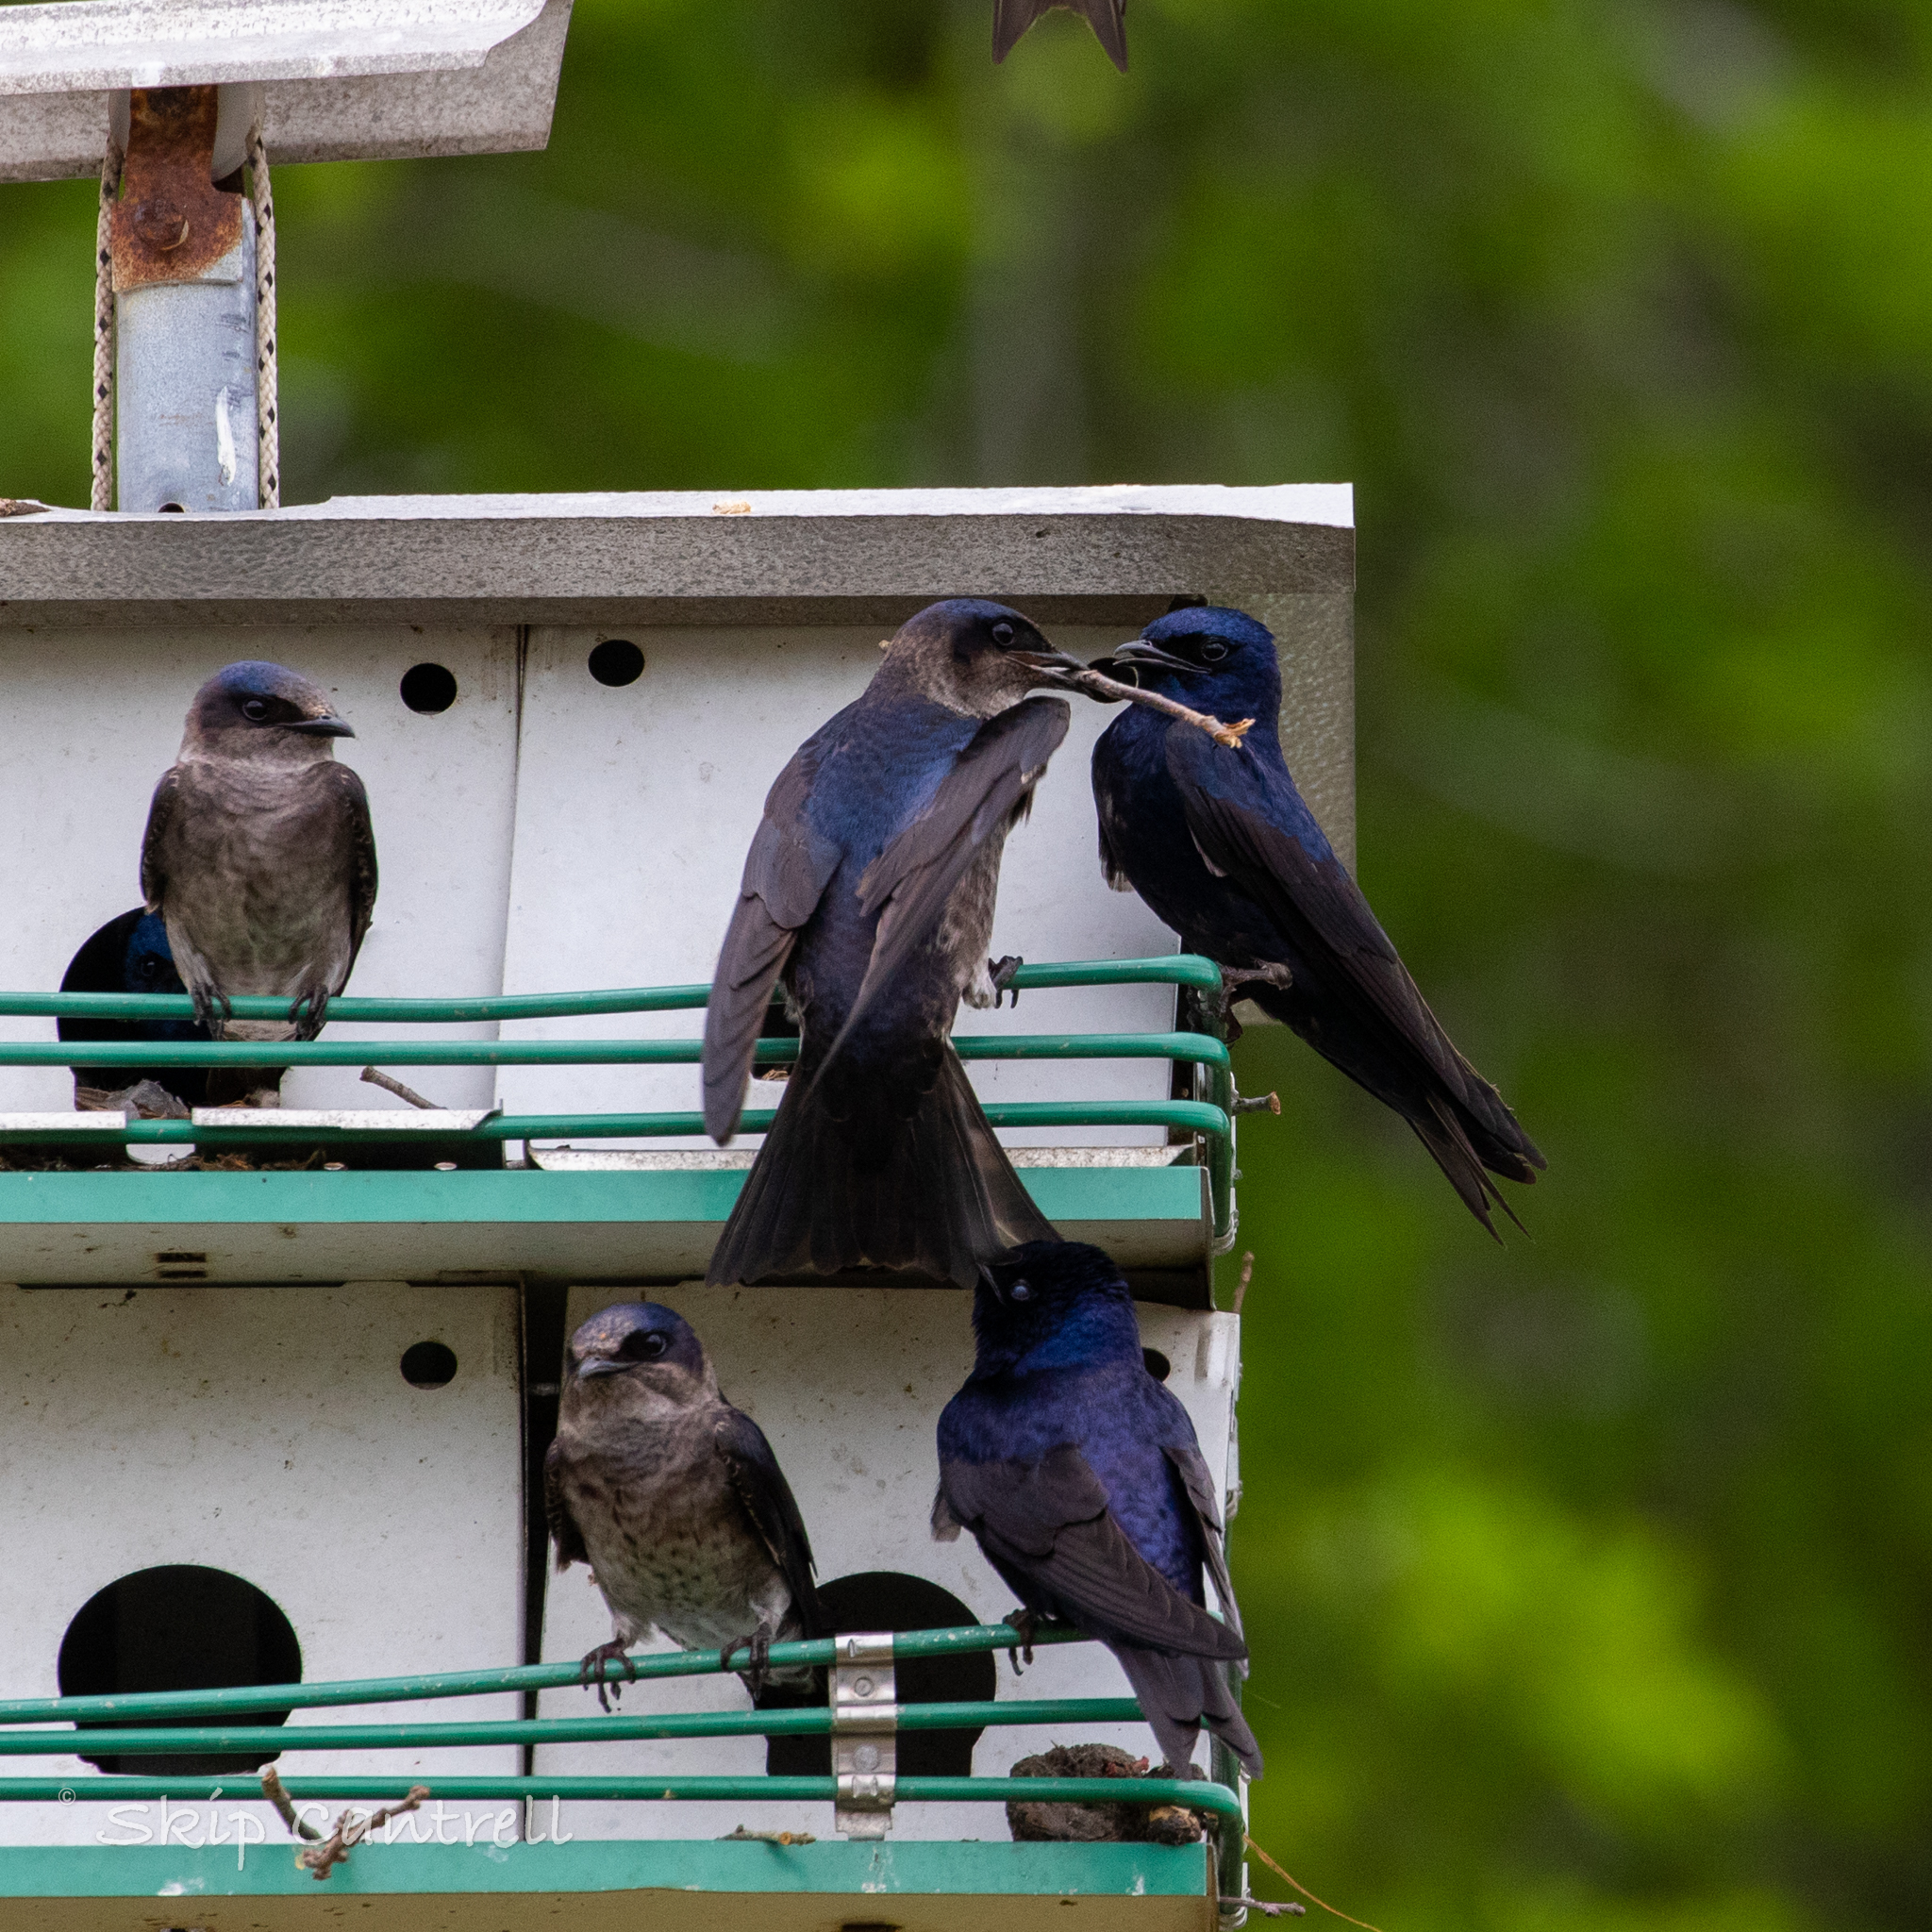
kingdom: Animalia
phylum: Chordata
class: Aves
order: Passeriformes
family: Hirundinidae
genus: Progne
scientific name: Progne subis
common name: Purple martin
